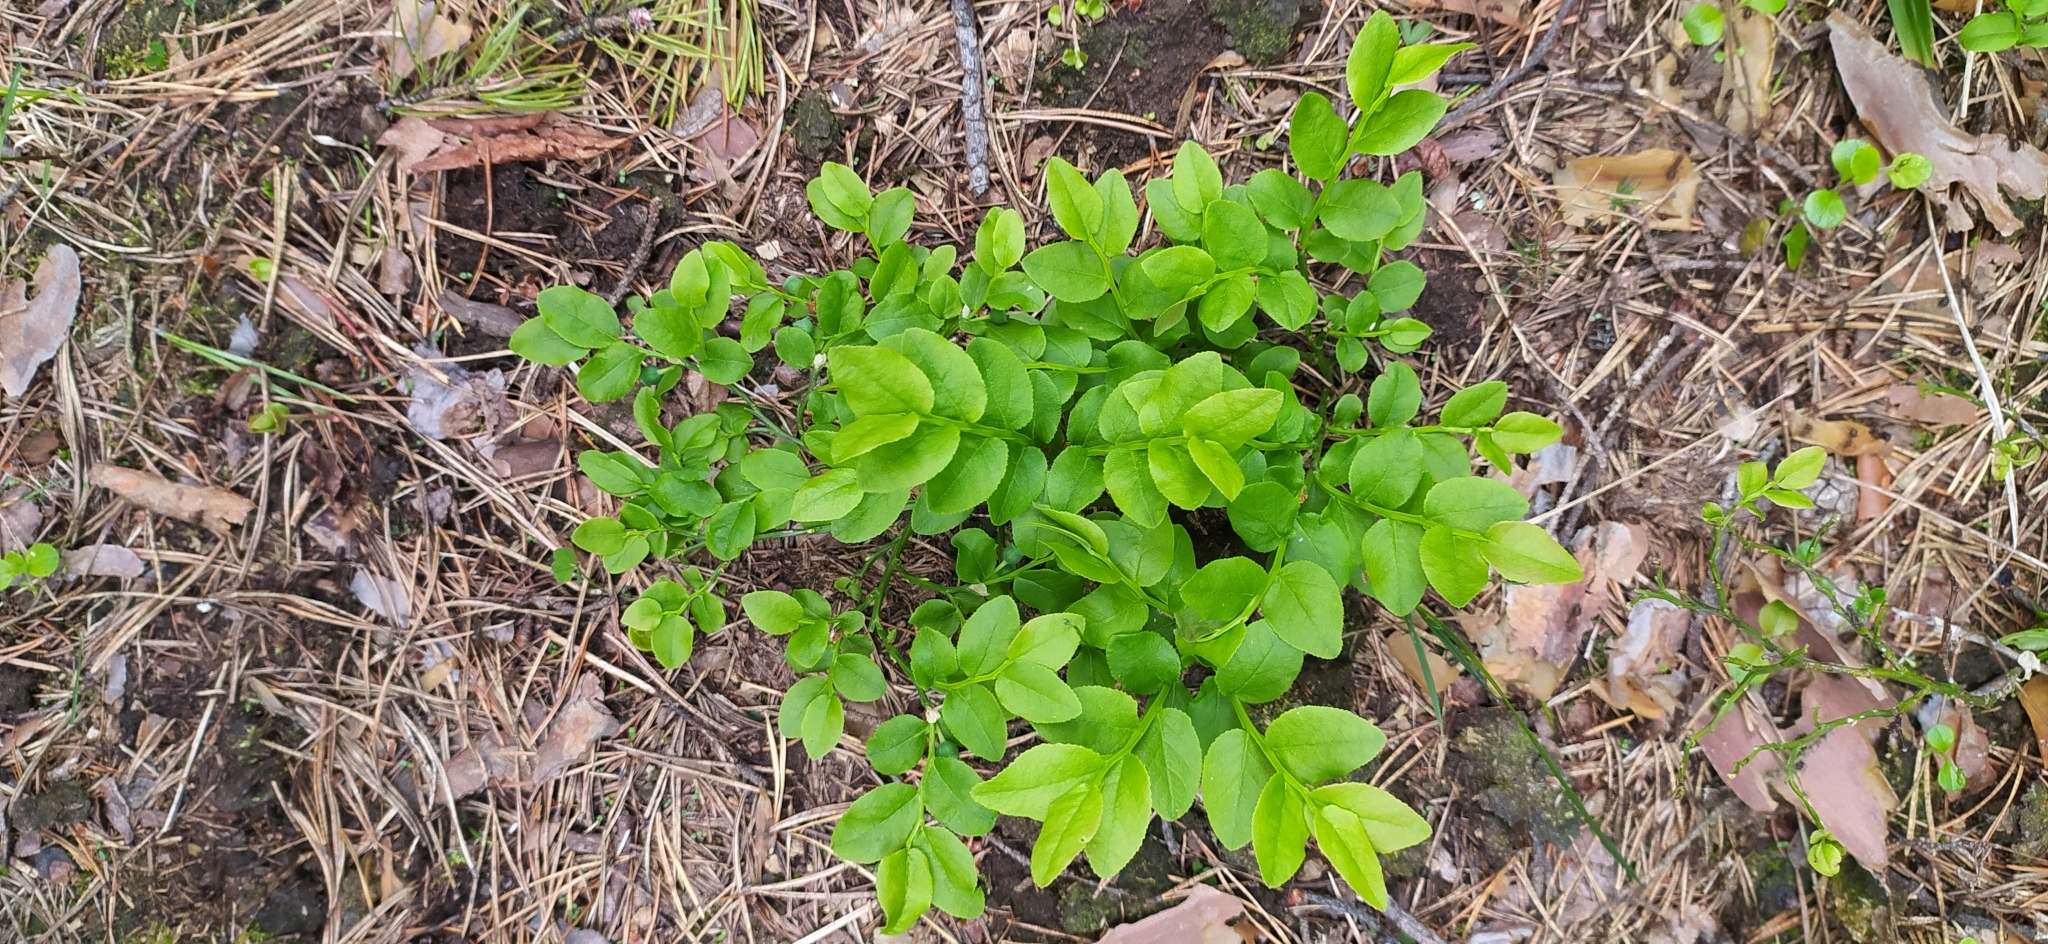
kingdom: Plantae
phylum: Tracheophyta
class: Magnoliopsida
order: Ericales
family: Ericaceae
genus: Vaccinium
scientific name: Vaccinium myrtillus
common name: Bilberry
